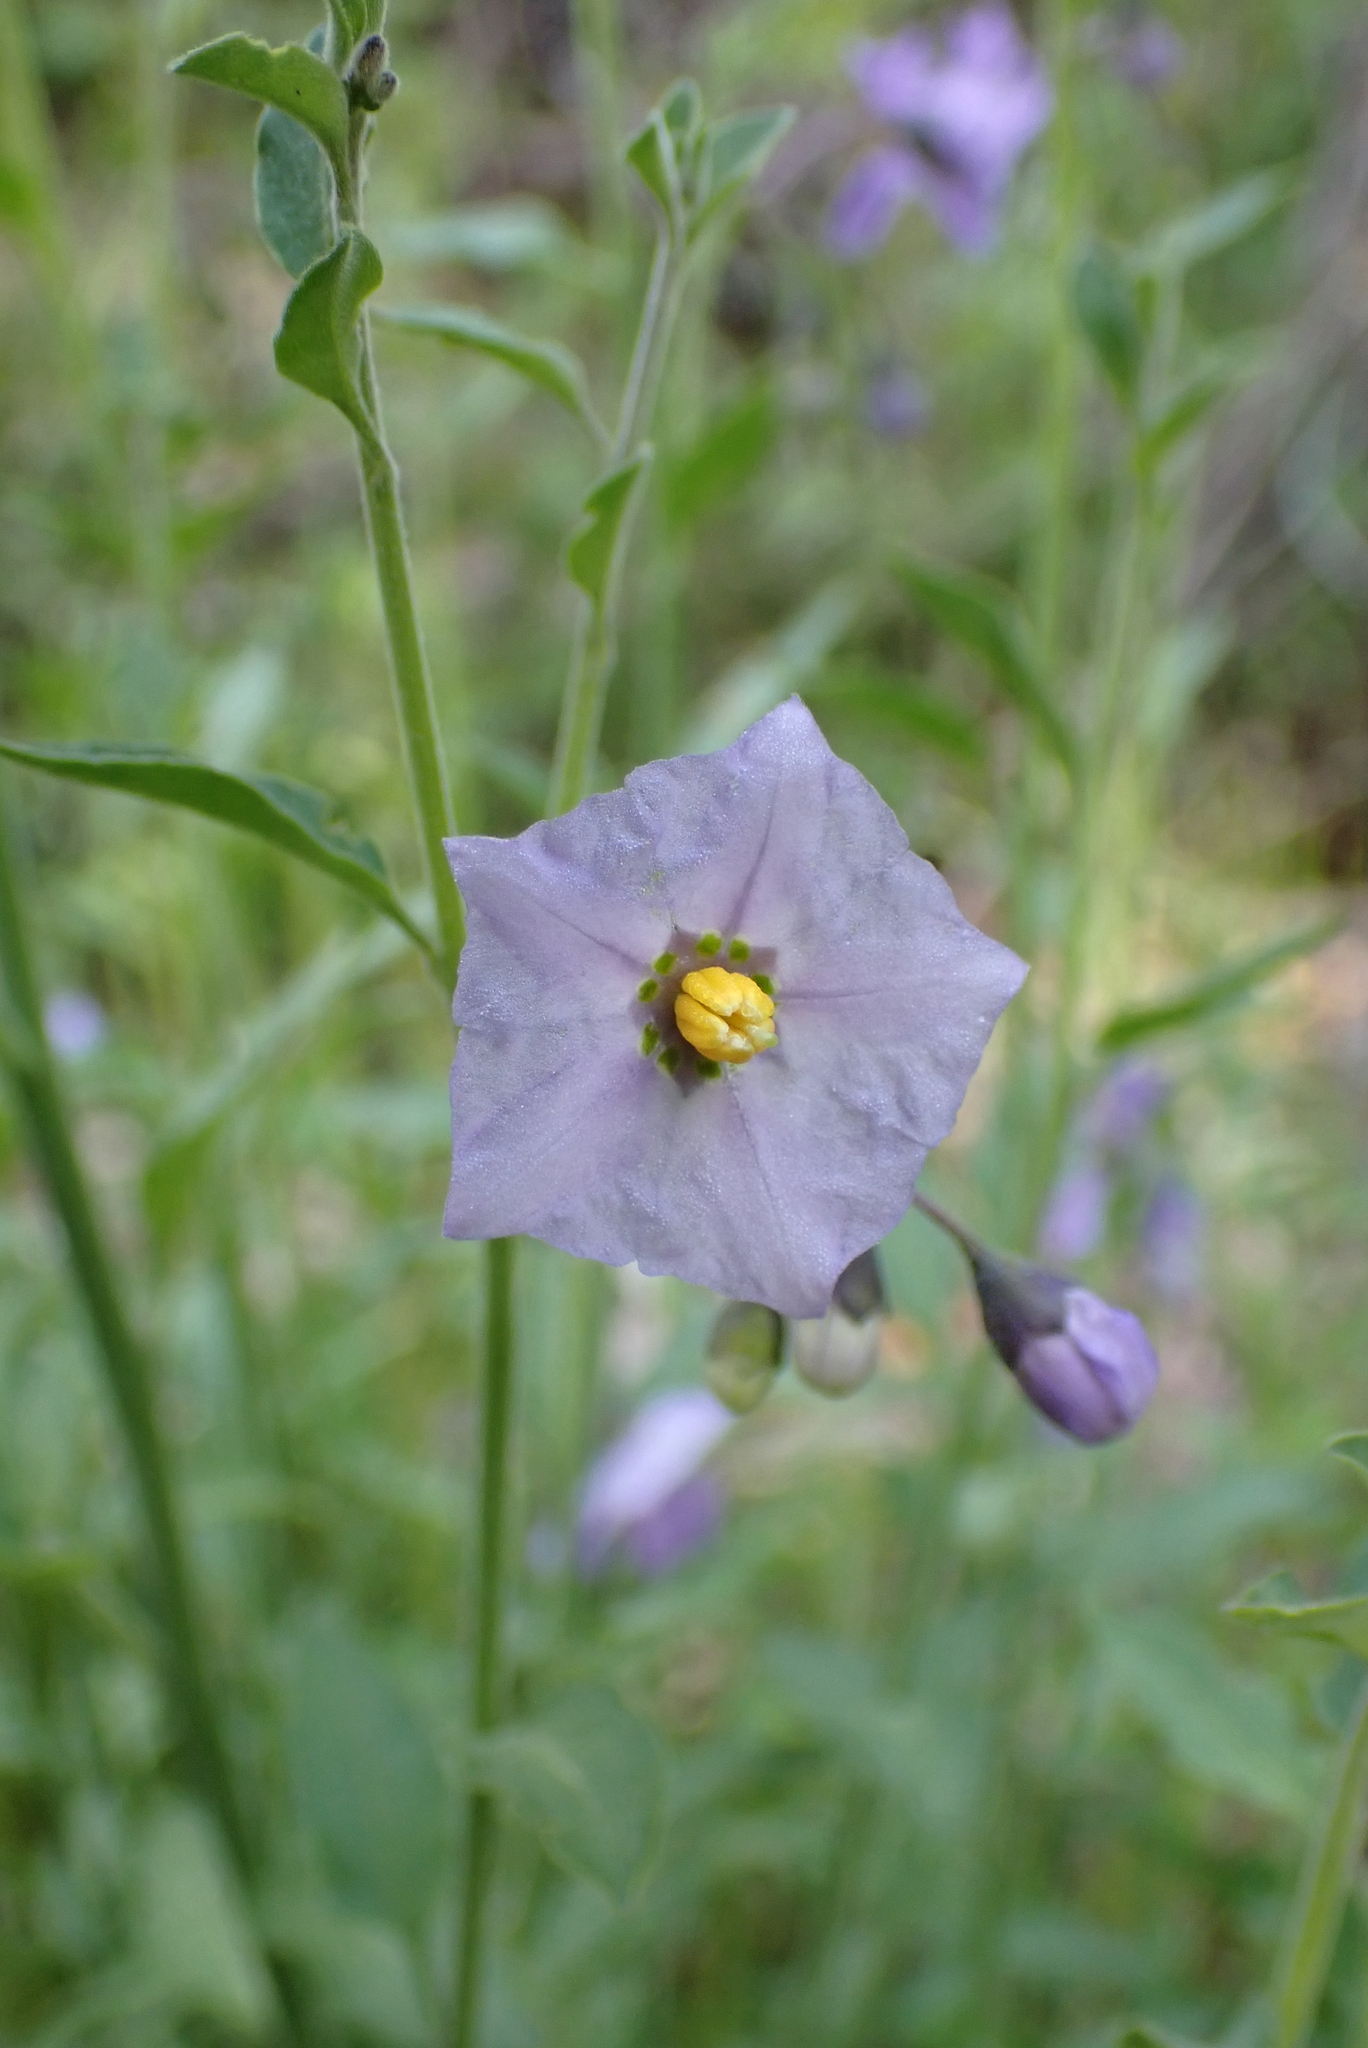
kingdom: Plantae
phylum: Tracheophyta
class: Magnoliopsida
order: Solanales
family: Solanaceae
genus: Solanum
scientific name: Solanum umbelliferum
